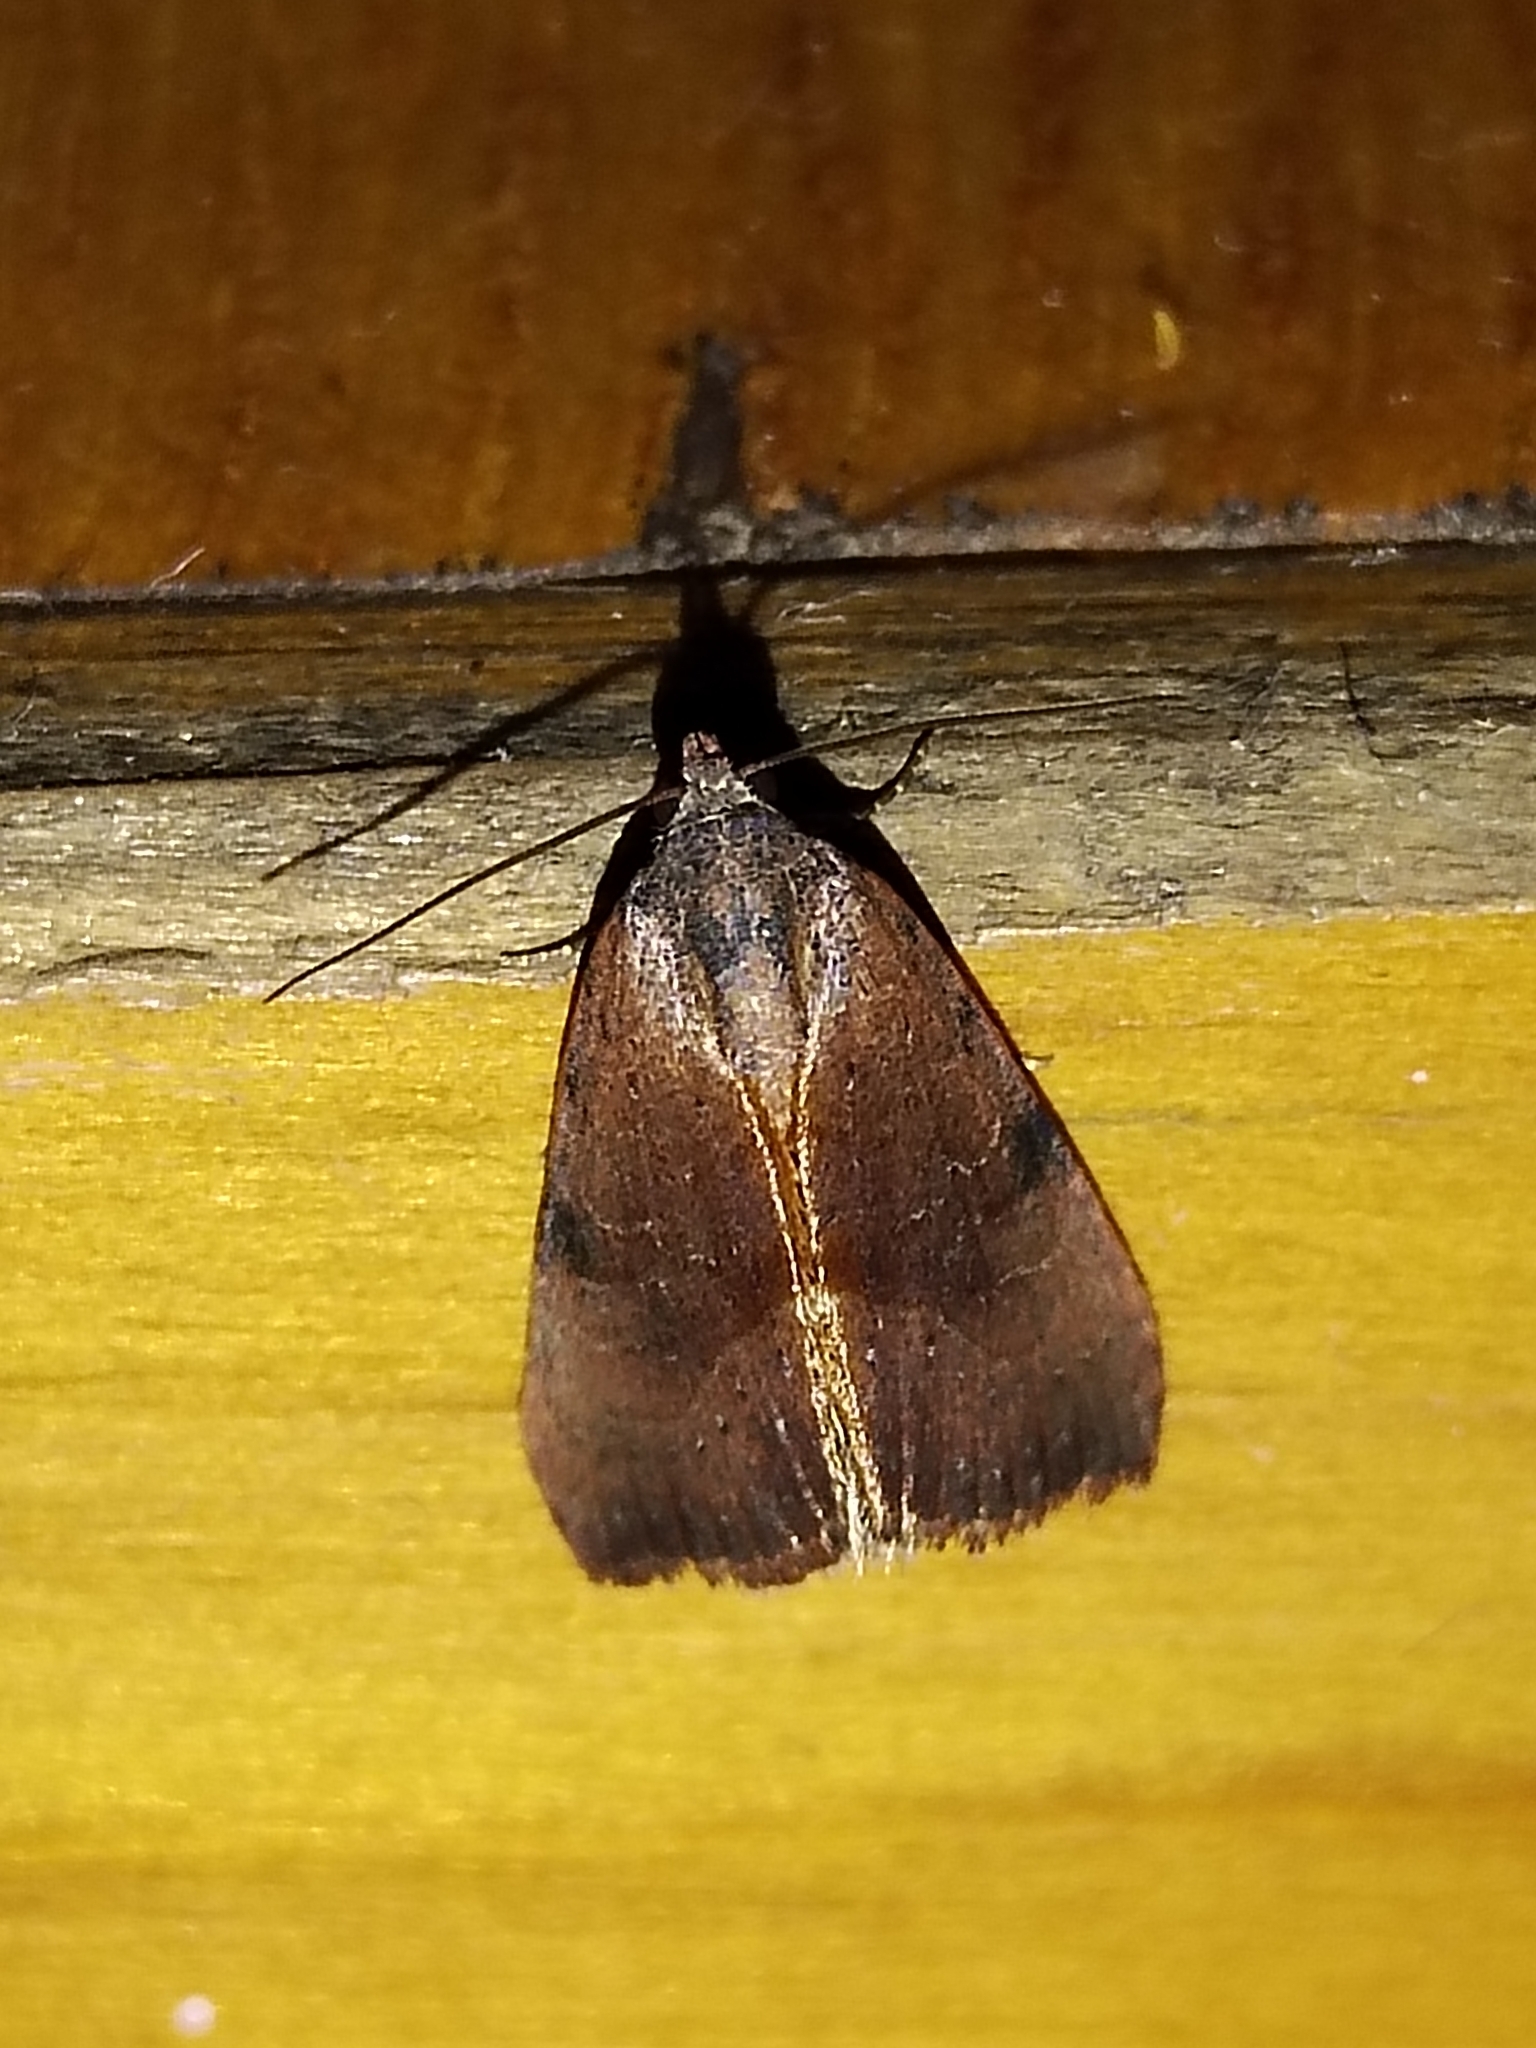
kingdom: Animalia
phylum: Arthropoda
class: Insecta
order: Lepidoptera
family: Noctuidae
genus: Galgula
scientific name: Galgula partita
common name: Wedgeling
